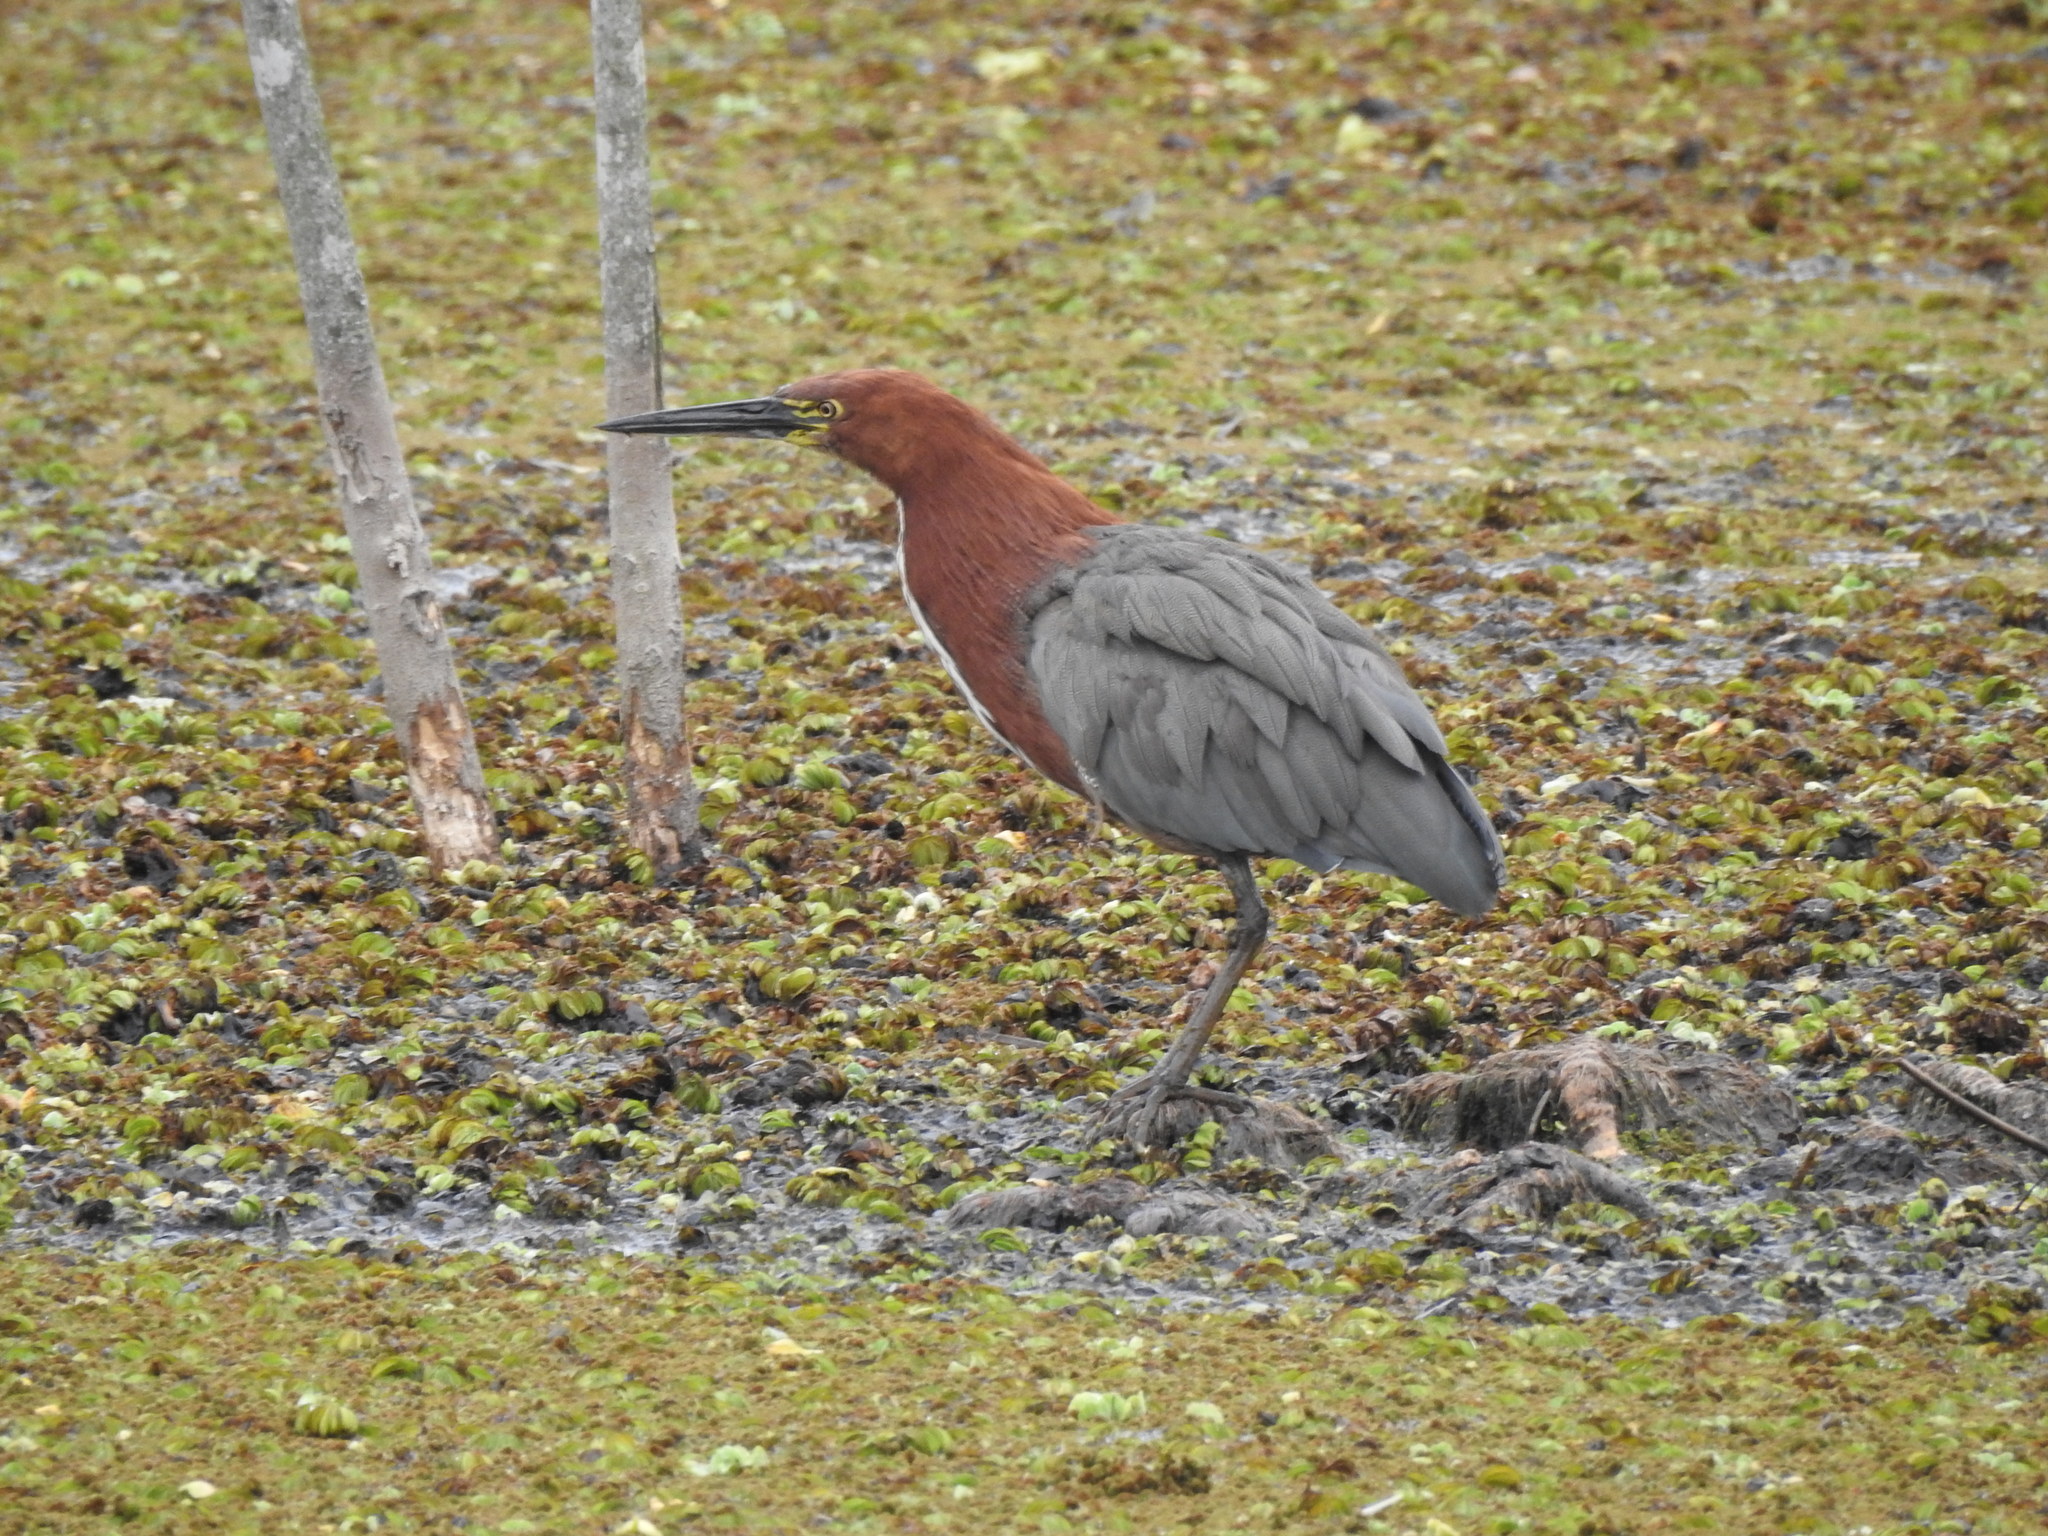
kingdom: Animalia
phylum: Chordata
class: Aves
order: Pelecaniformes
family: Ardeidae
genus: Tigrisoma
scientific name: Tigrisoma lineatum
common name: Rufescent tiger-heron
